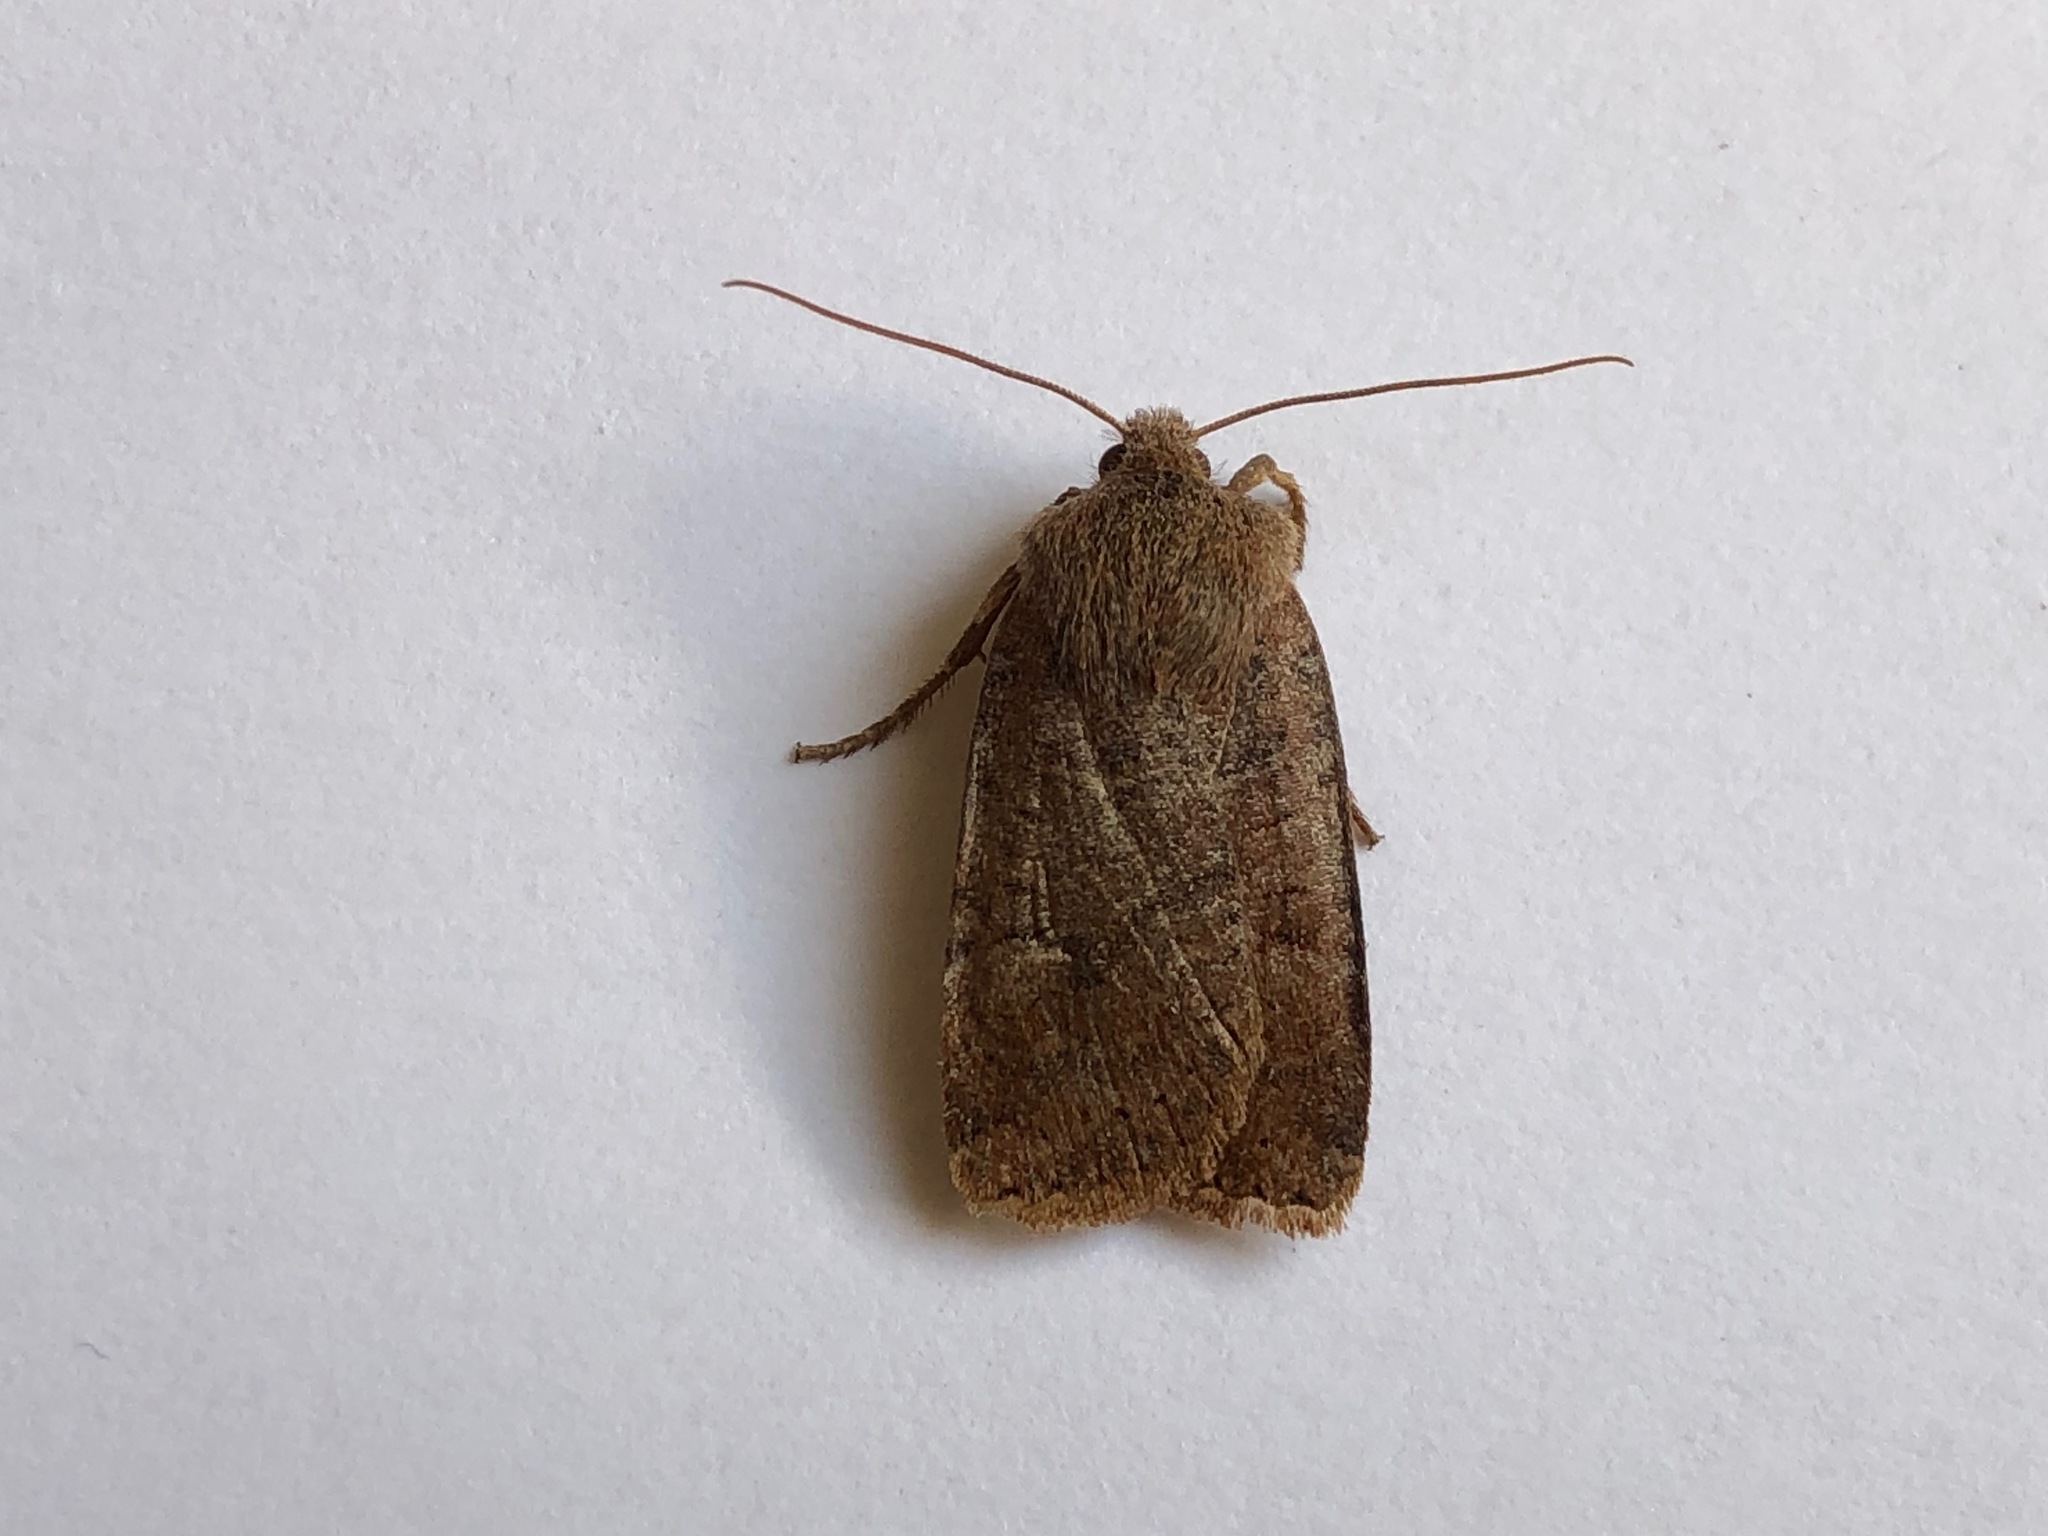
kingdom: Animalia
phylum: Arthropoda
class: Insecta
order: Lepidoptera
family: Noctuidae
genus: Conistra
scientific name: Conistra vaccinii
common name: Chestnut
